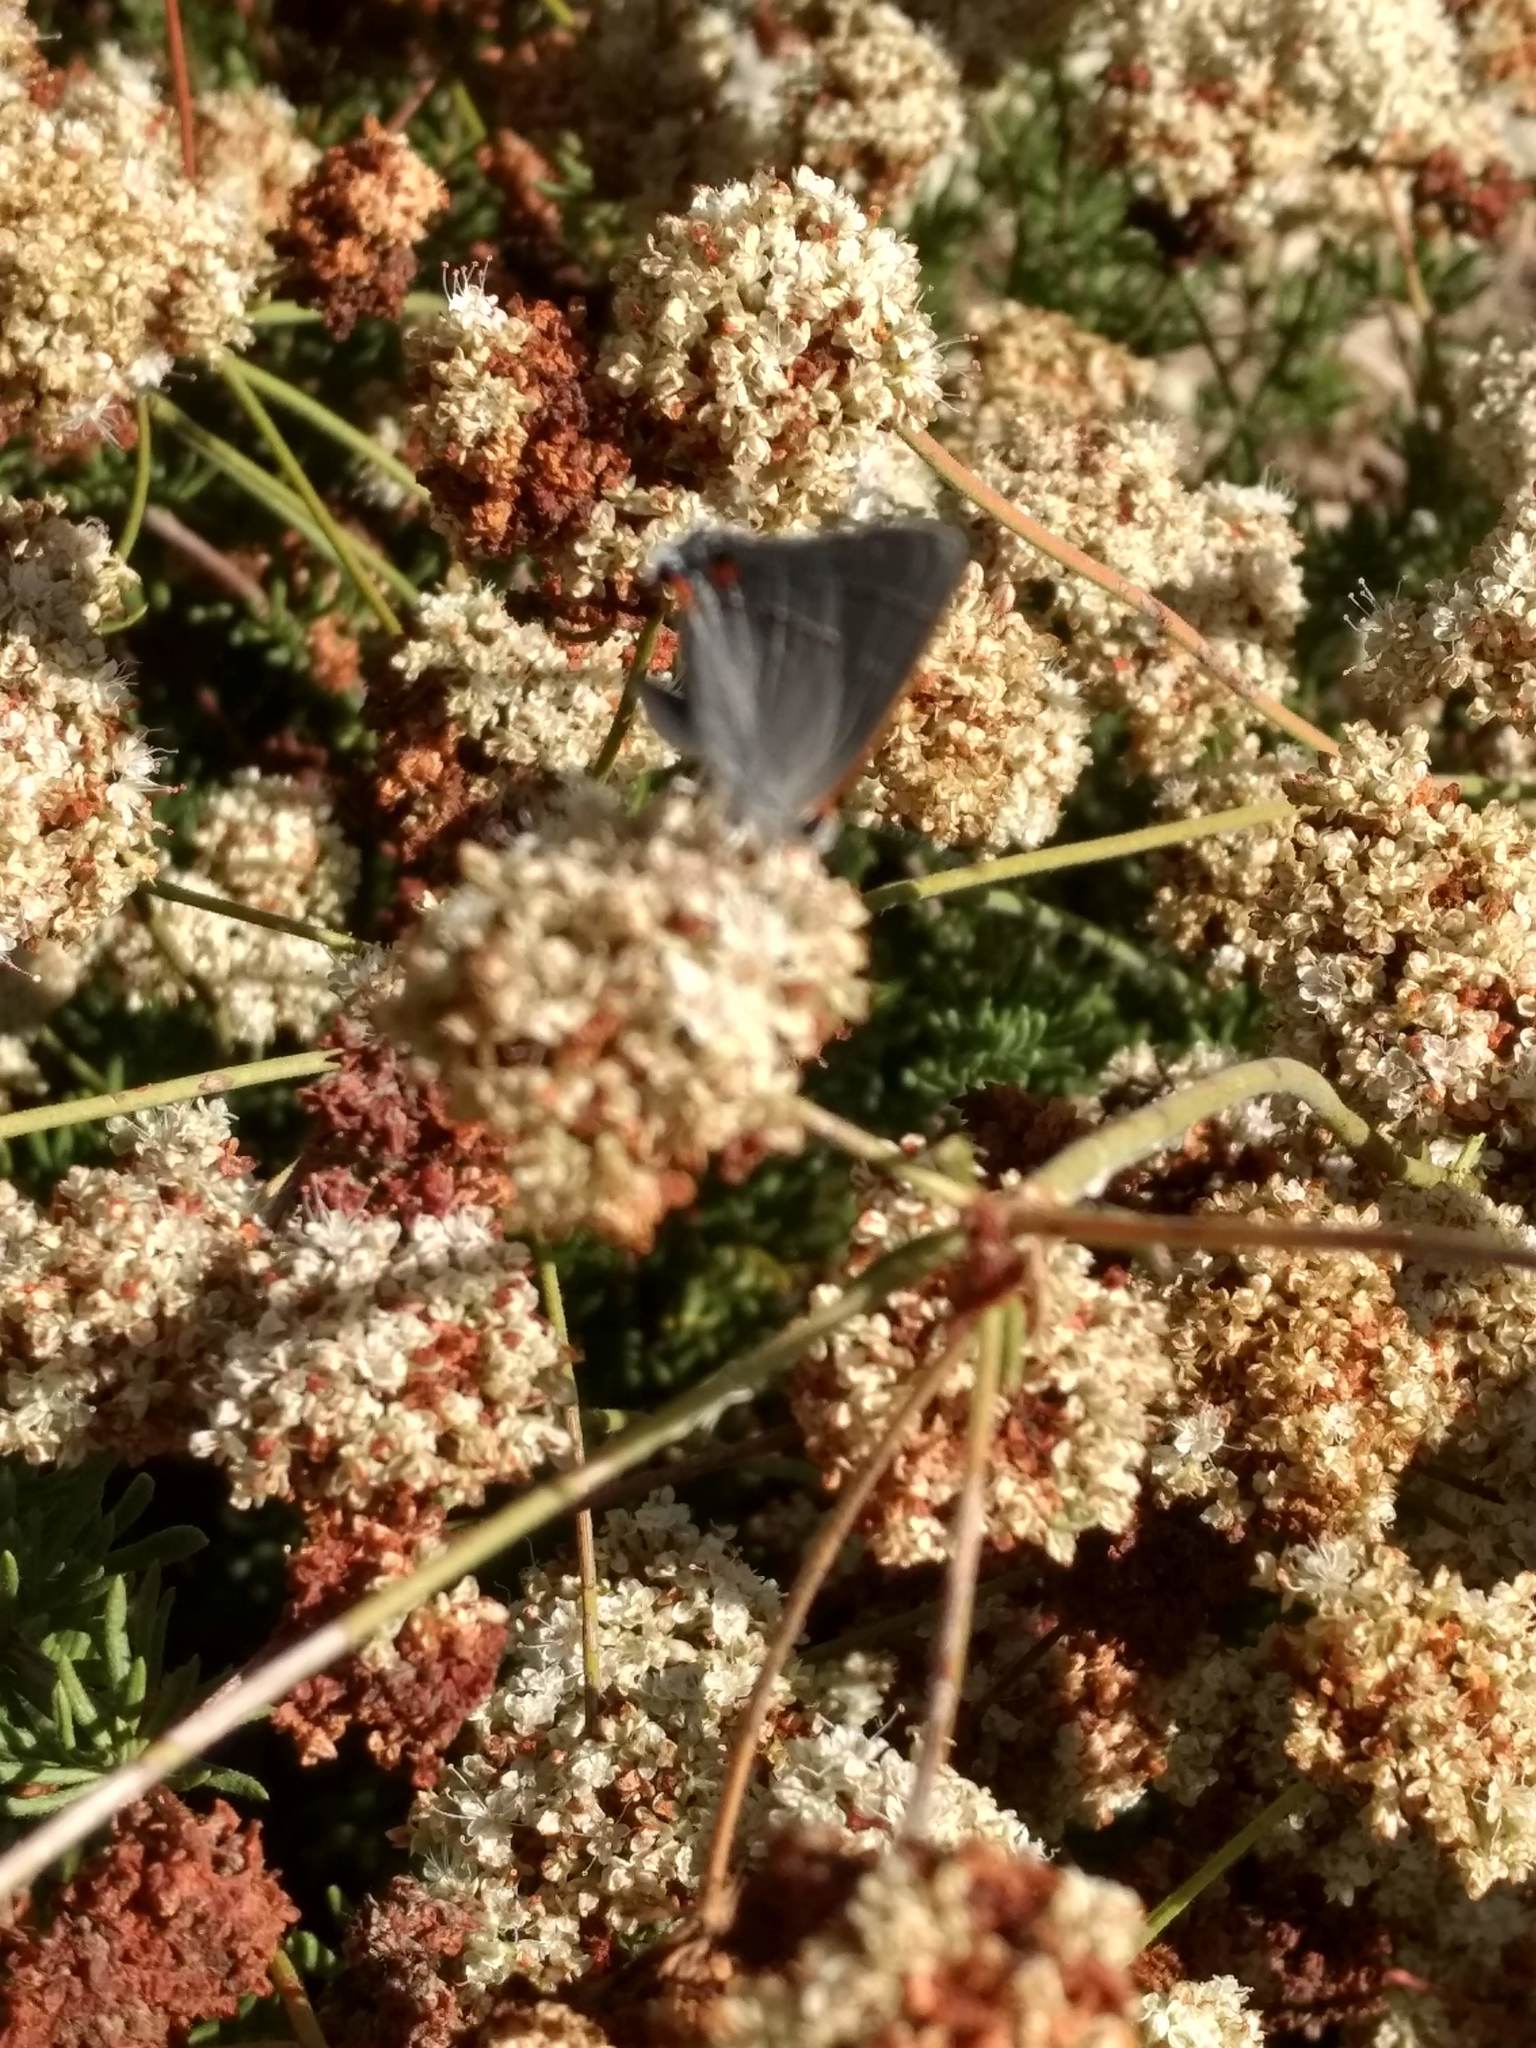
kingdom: Animalia
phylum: Arthropoda
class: Insecta
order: Lepidoptera
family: Lycaenidae
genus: Strymon
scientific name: Strymon melinus
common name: Gray hairstreak
